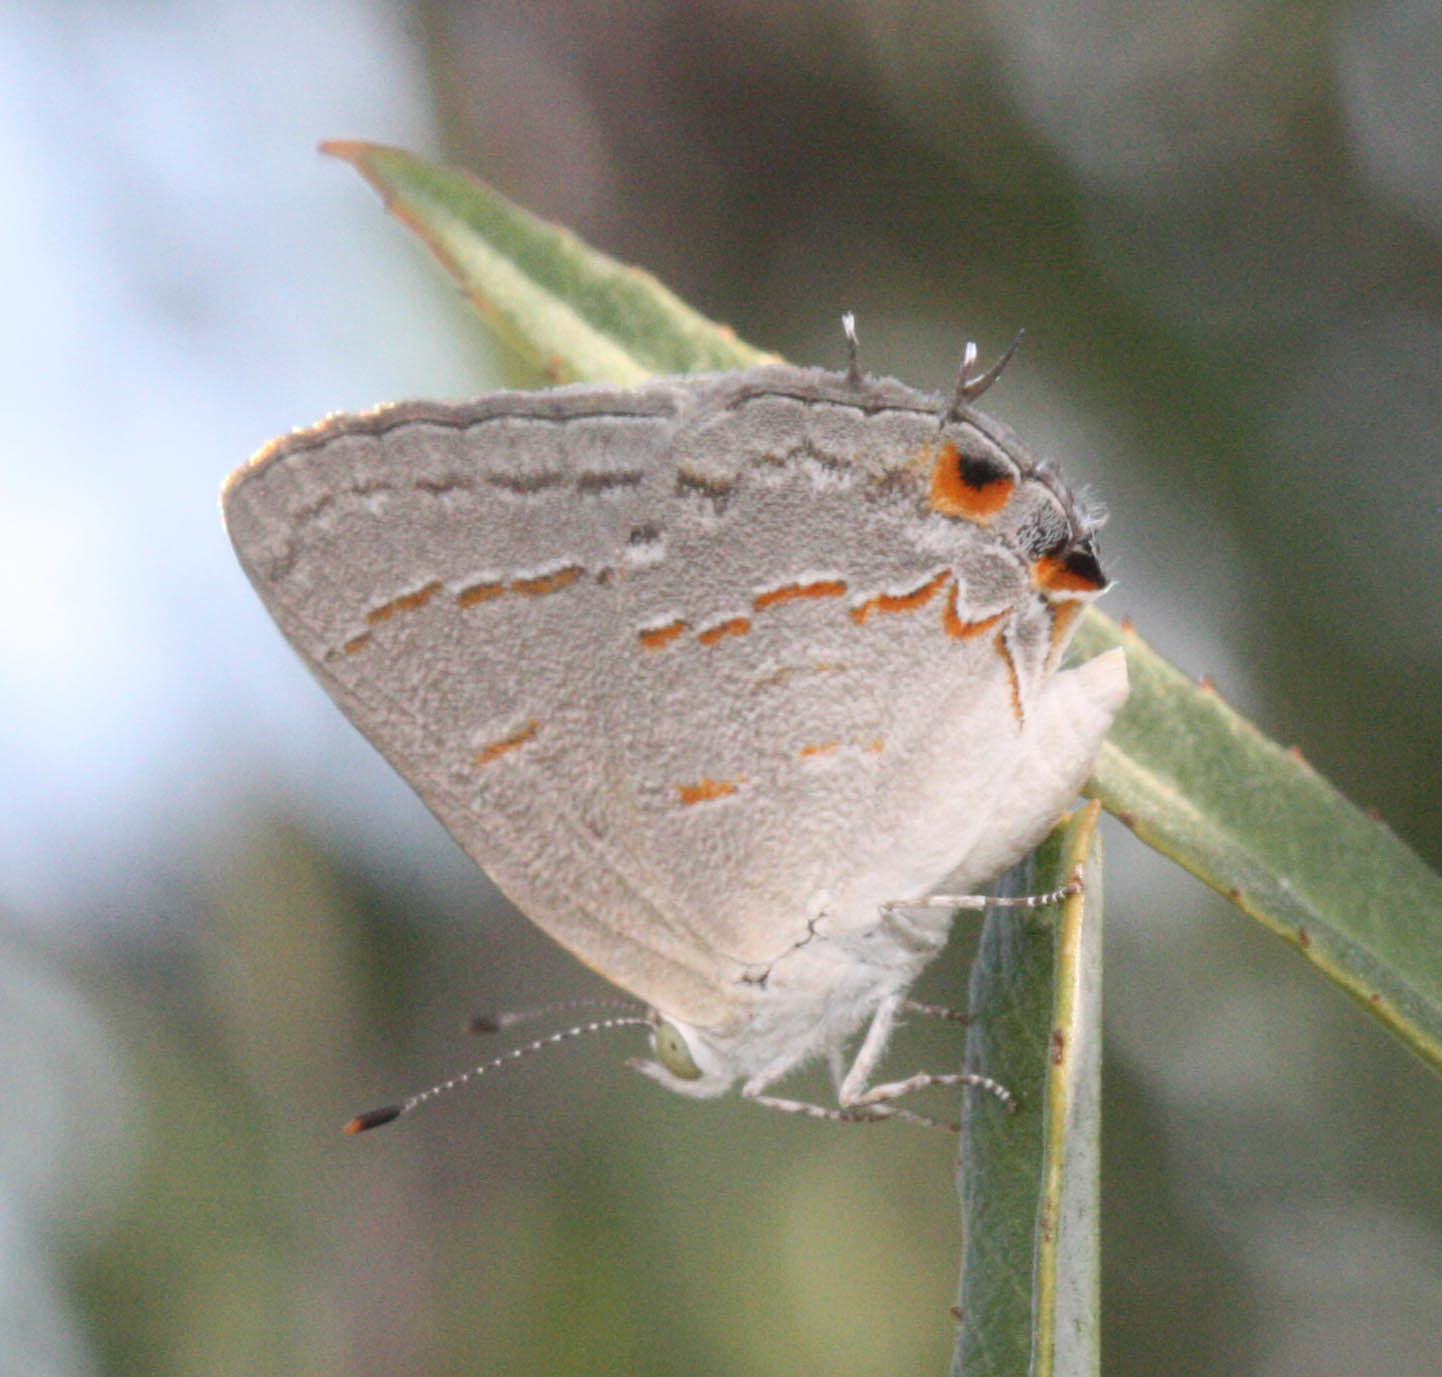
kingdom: Animalia
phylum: Arthropoda
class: Insecta
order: Lepidoptera
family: Lycaenidae
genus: Ministrymon
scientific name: Ministrymon leda
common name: Leda ministreak
